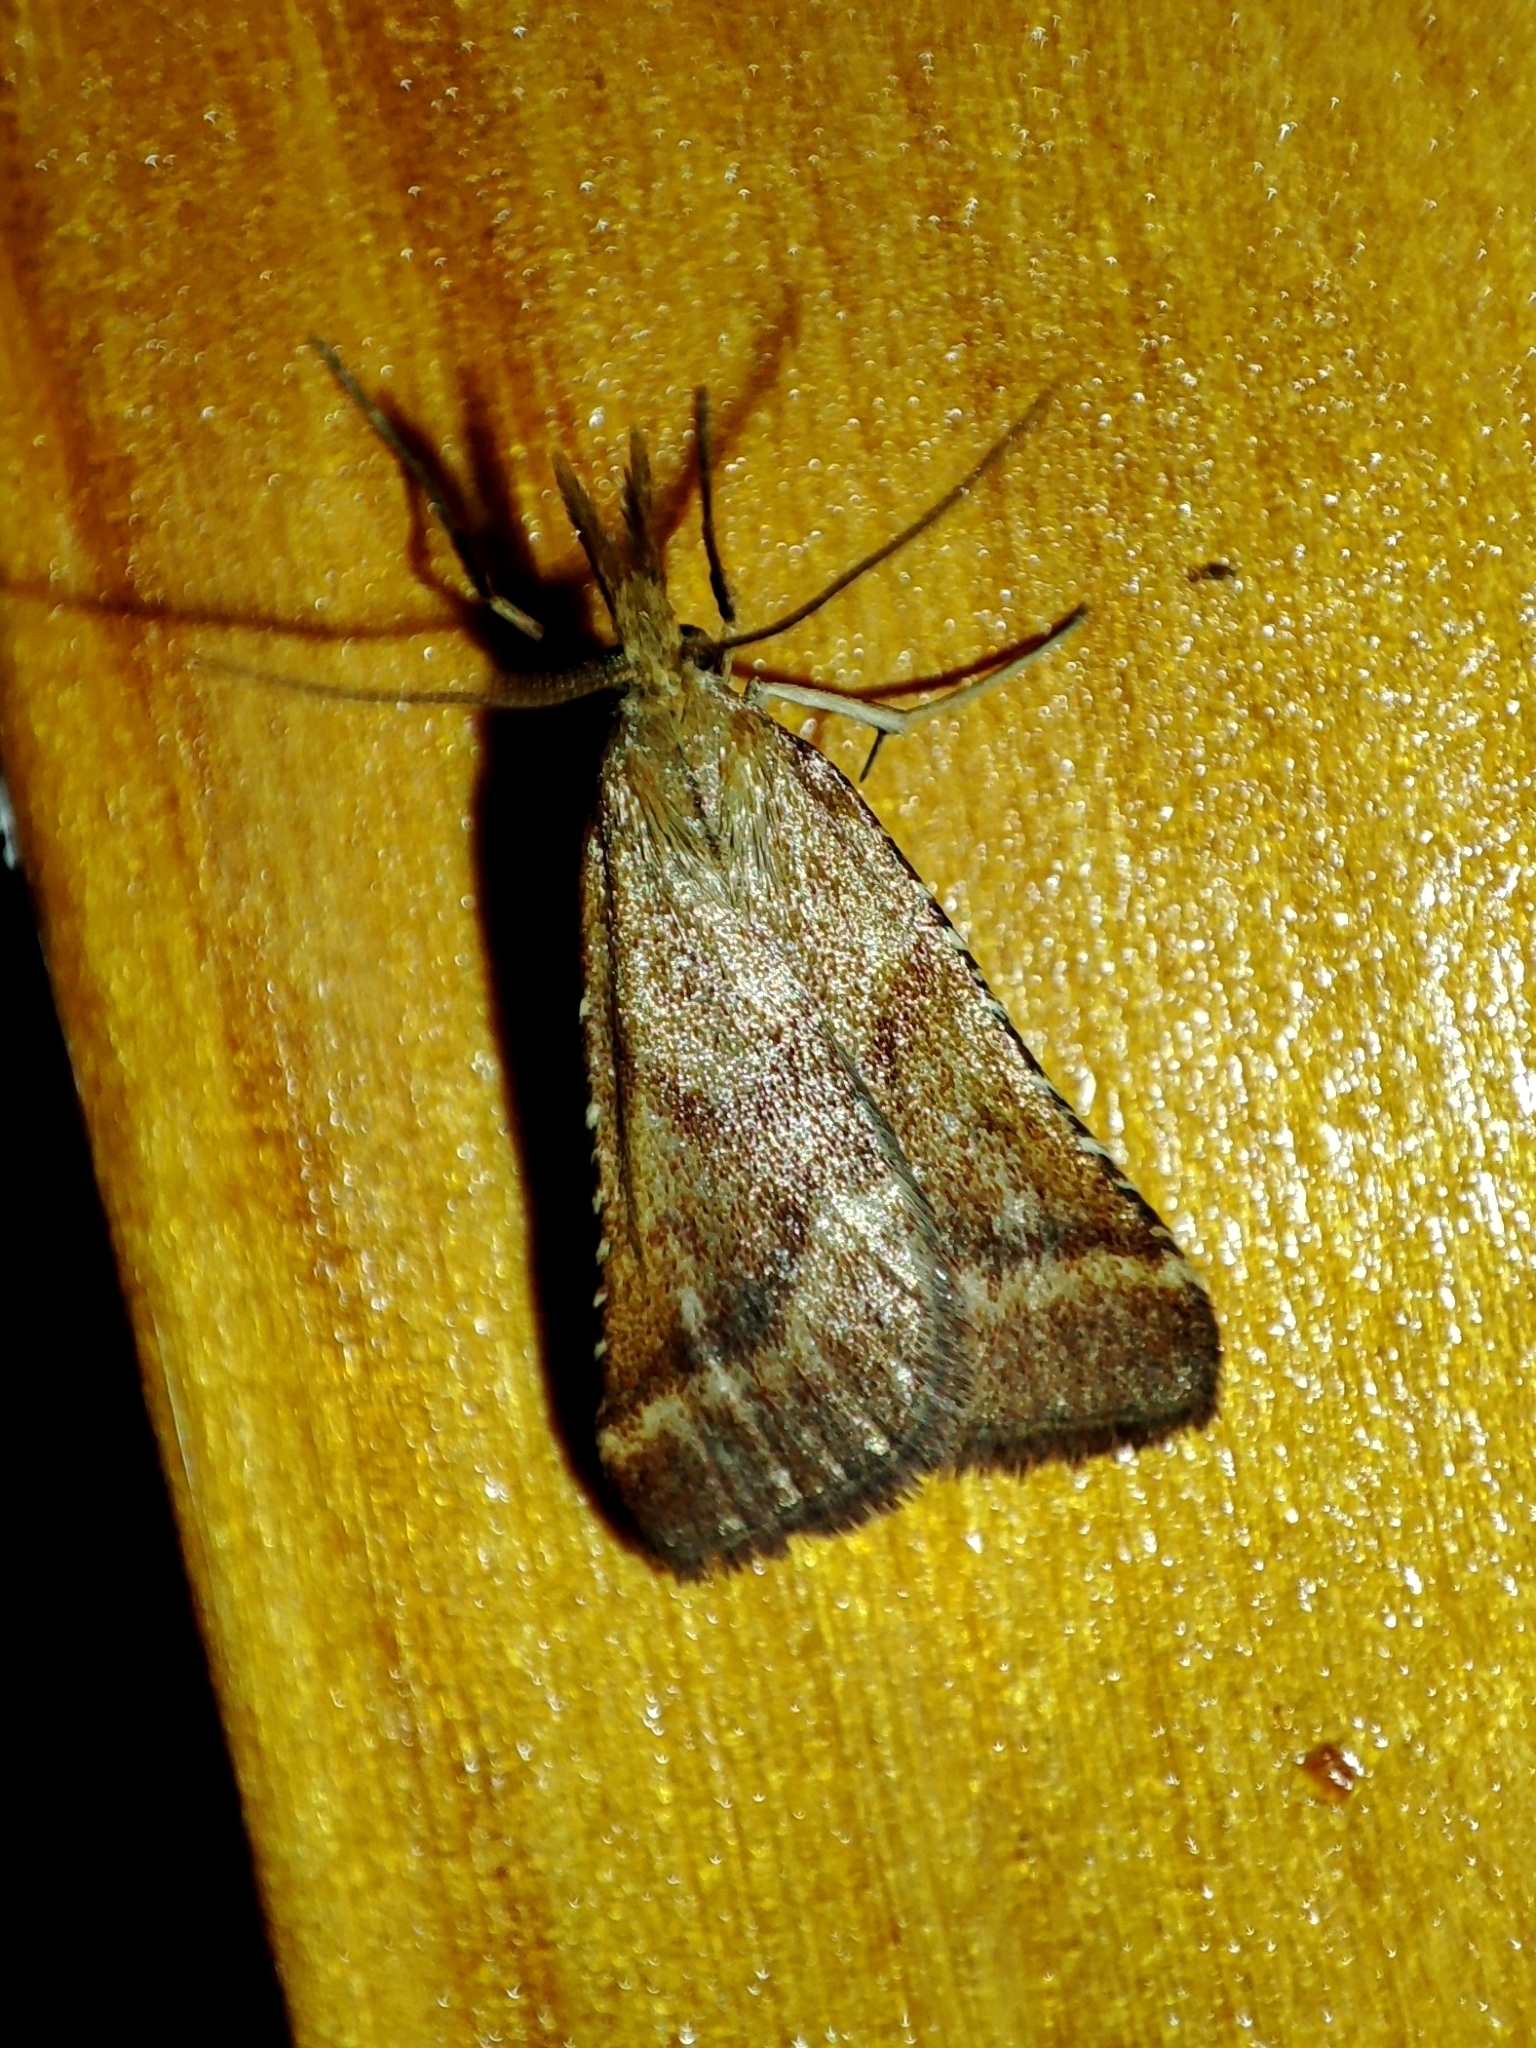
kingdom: Animalia
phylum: Arthropoda
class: Insecta
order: Lepidoptera
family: Pyralidae
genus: Synaphe
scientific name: Synaphe punctalis
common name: Long-legged tabby
